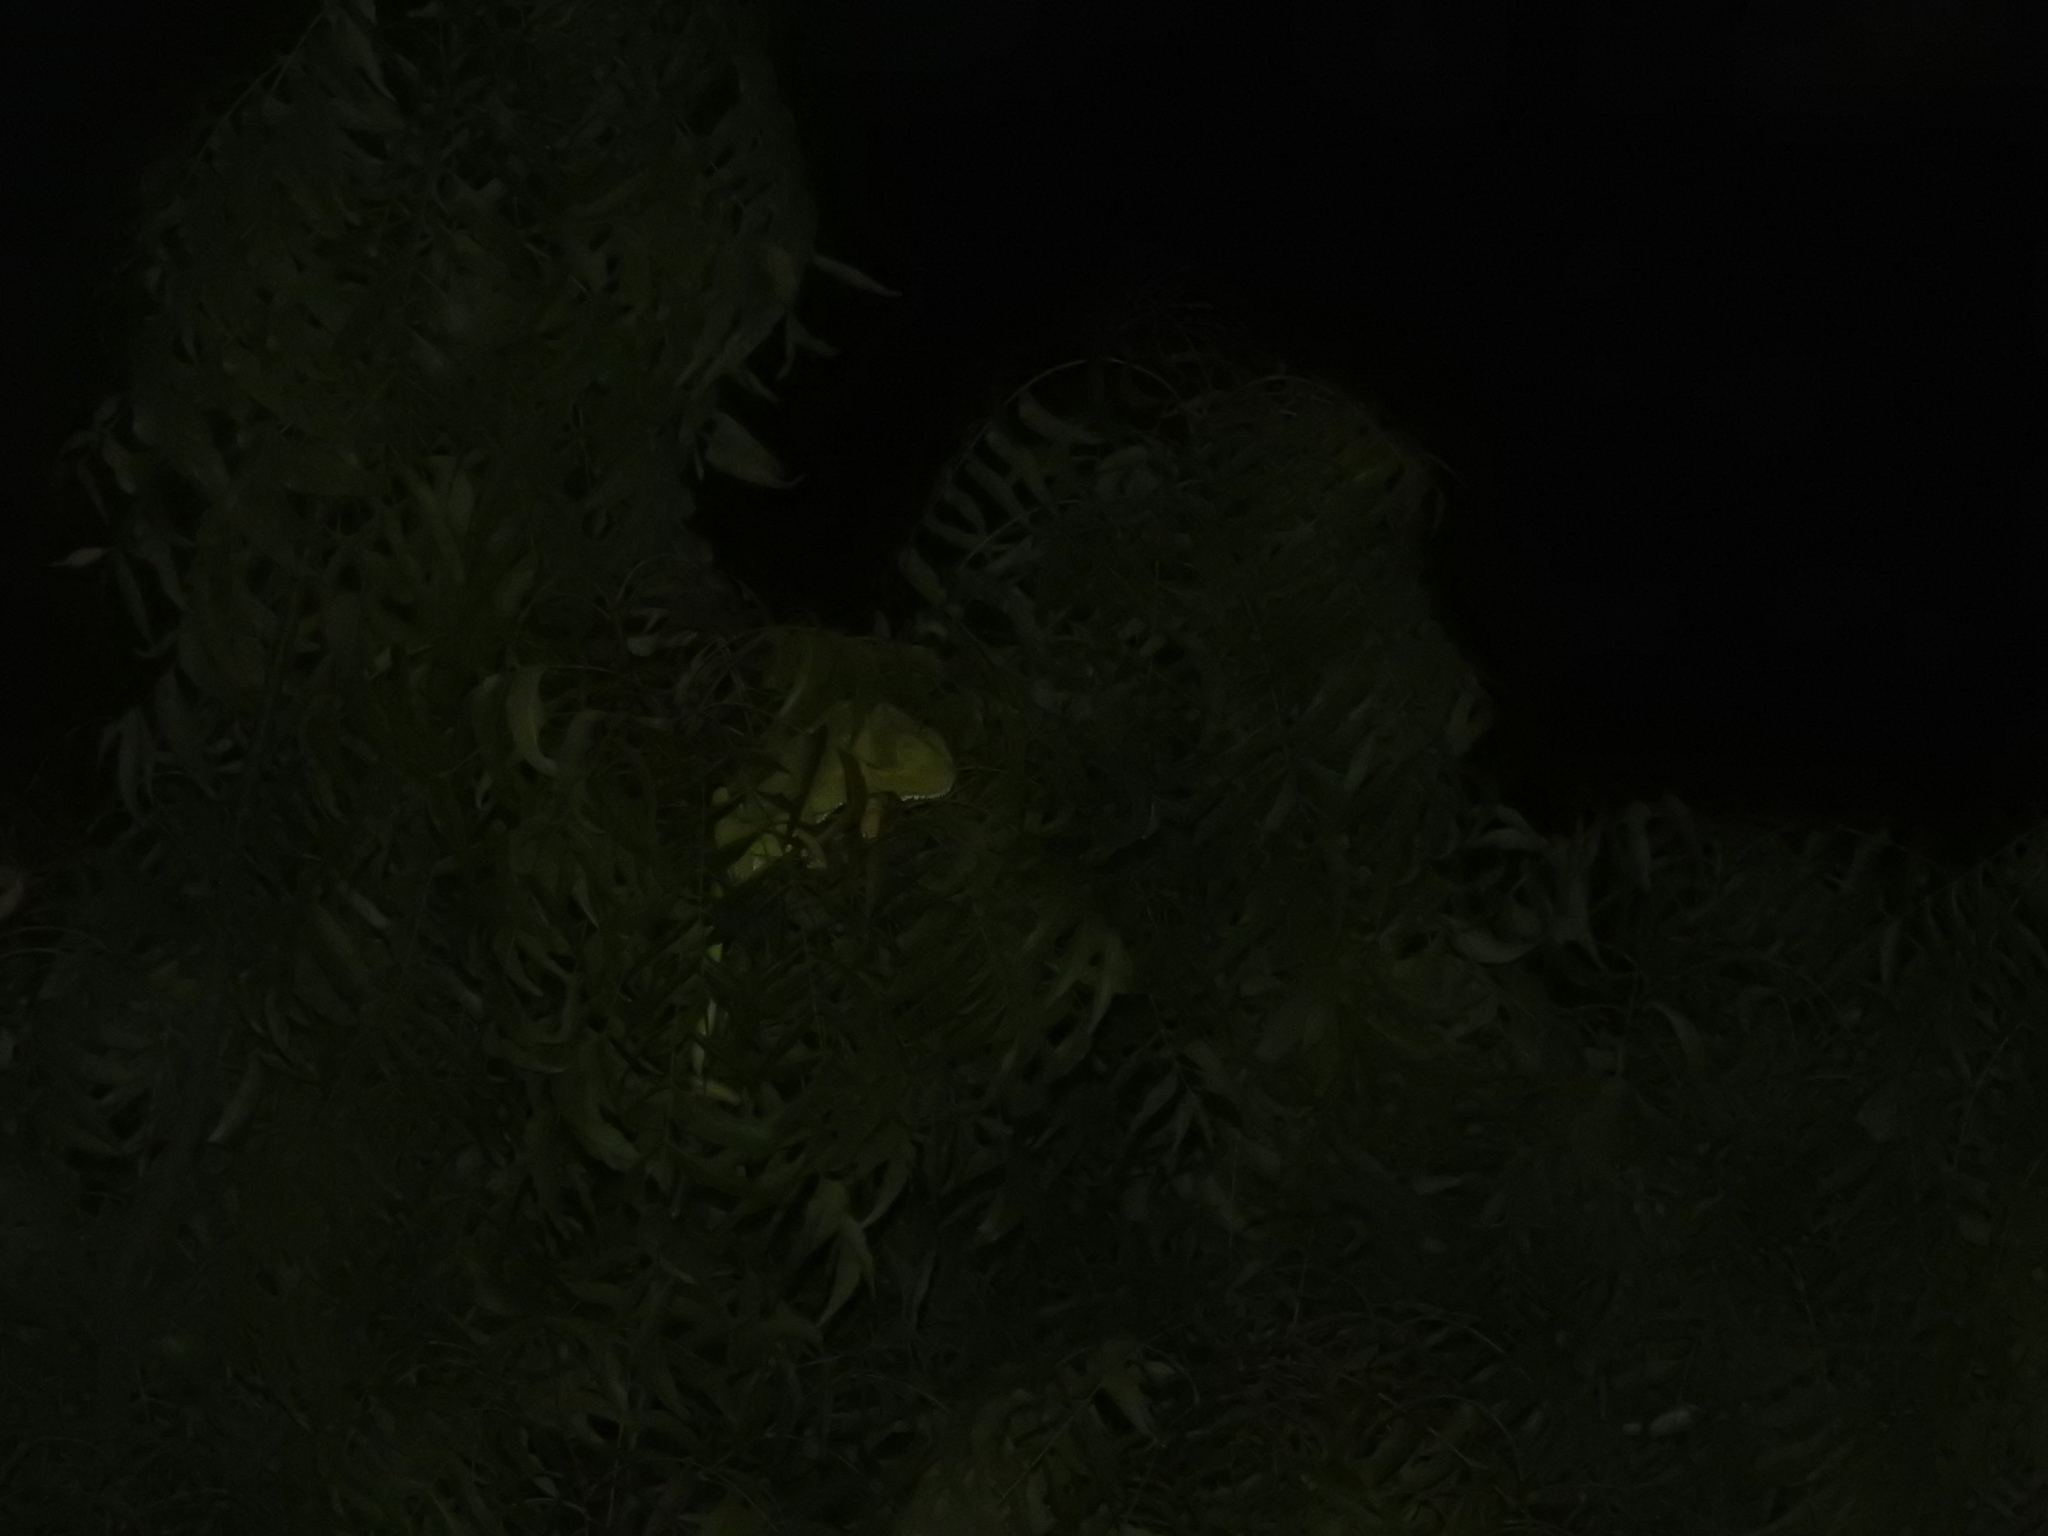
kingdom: Animalia
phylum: Chordata
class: Squamata
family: Chamaeleonidae
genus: Chamaeleo
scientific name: Chamaeleo zeylanicus
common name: Indian chameleon
